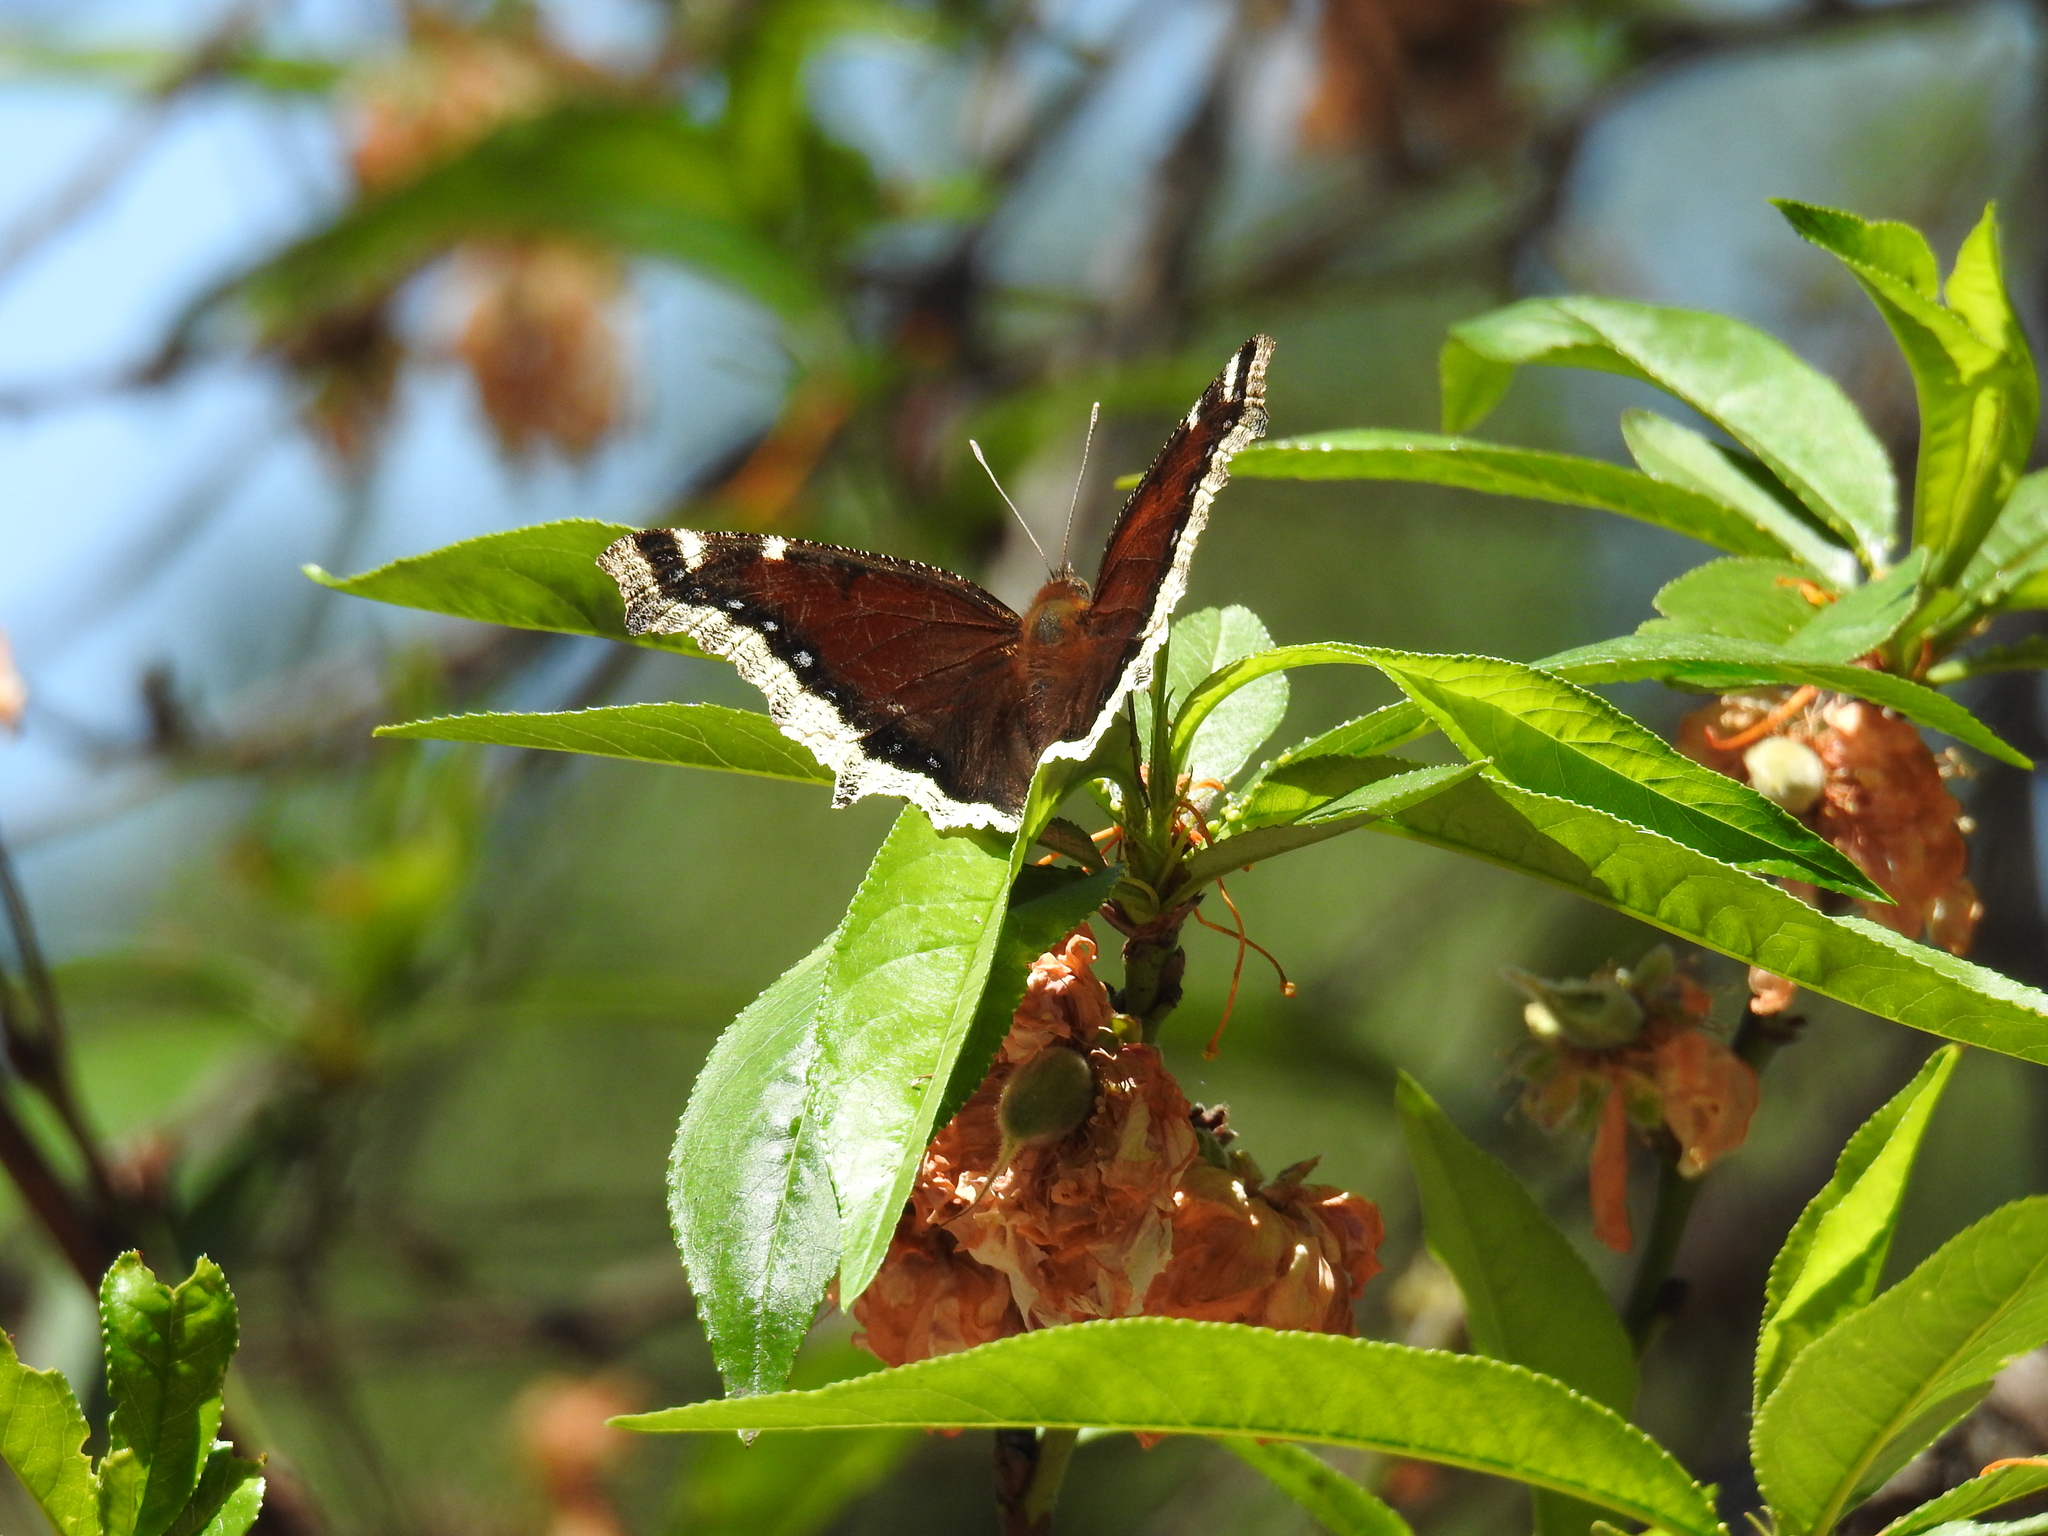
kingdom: Animalia
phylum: Arthropoda
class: Insecta
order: Lepidoptera
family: Nymphalidae
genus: Nymphalis
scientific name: Nymphalis antiopa
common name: Camberwell beauty
